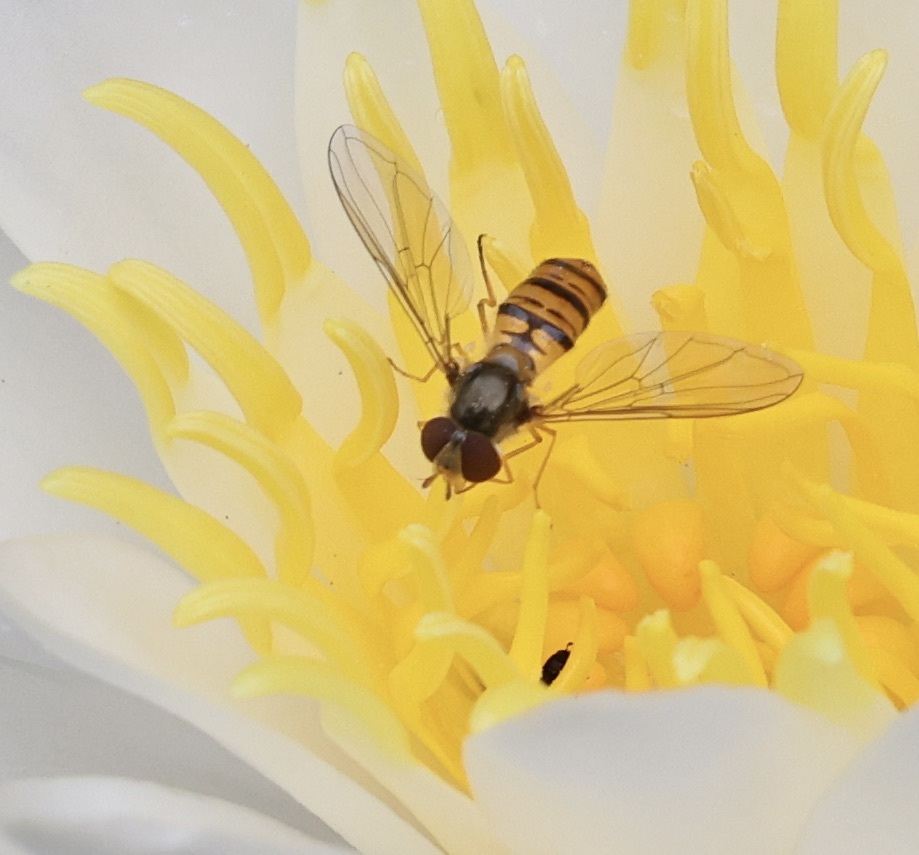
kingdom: Animalia
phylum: Arthropoda
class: Insecta
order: Diptera
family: Syrphidae
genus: Episyrphus
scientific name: Episyrphus balteatus
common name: Marmalade hoverfly
